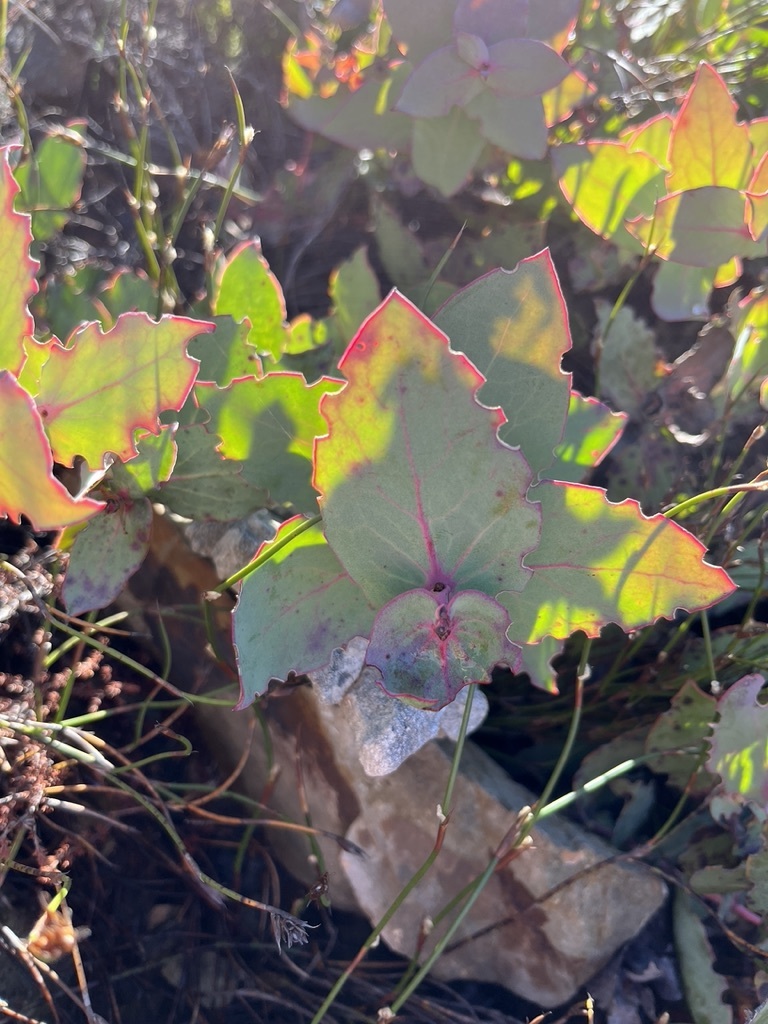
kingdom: Plantae
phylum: Tracheophyta
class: Magnoliopsida
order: Proteales
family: Proteaceae
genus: Protea
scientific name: Protea amplexicaulis
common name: Clasping-leaf sugarbush
